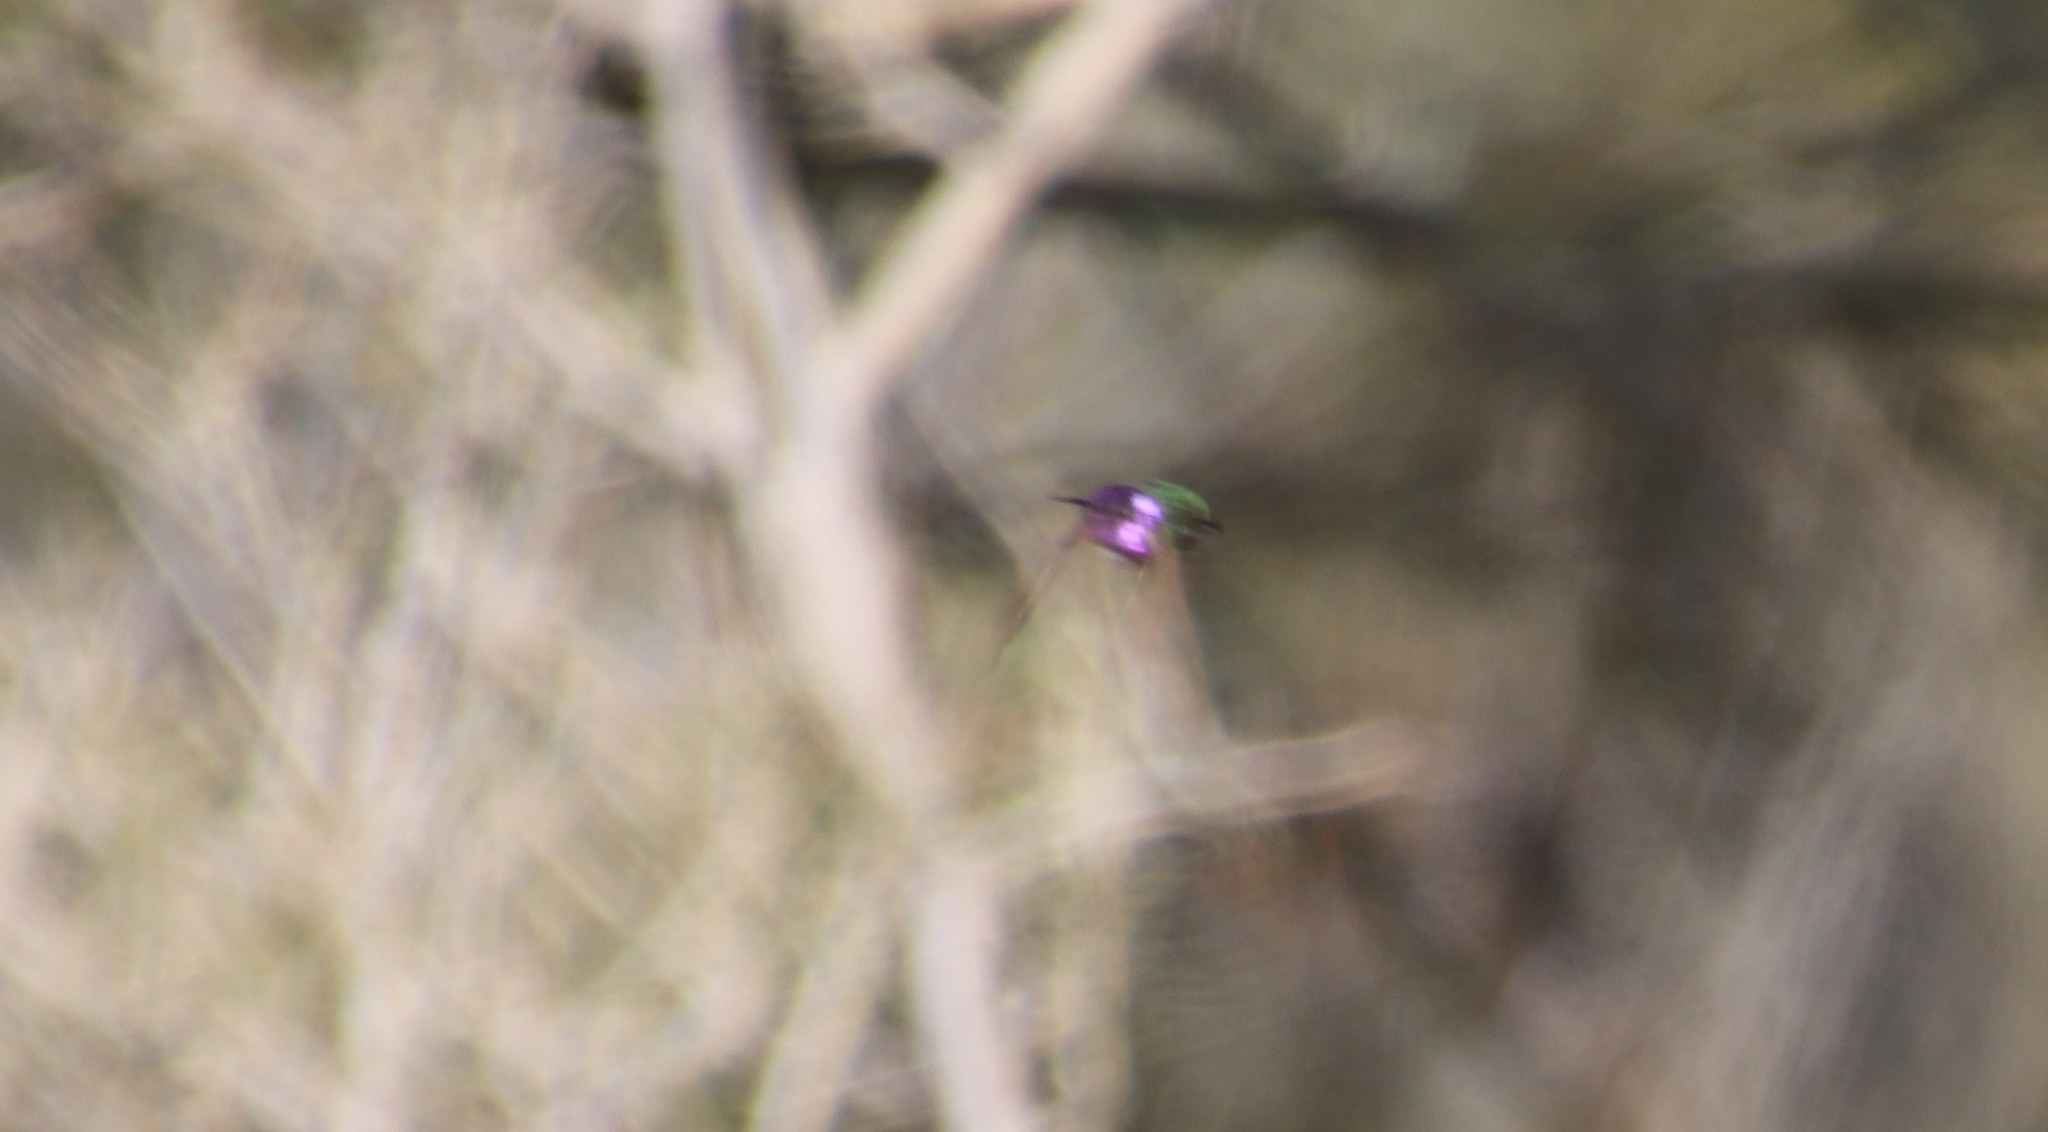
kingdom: Animalia
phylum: Chordata
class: Aves
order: Apodiformes
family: Trochilidae
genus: Calypte
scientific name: Calypte costae
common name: Costa's hummingbird
